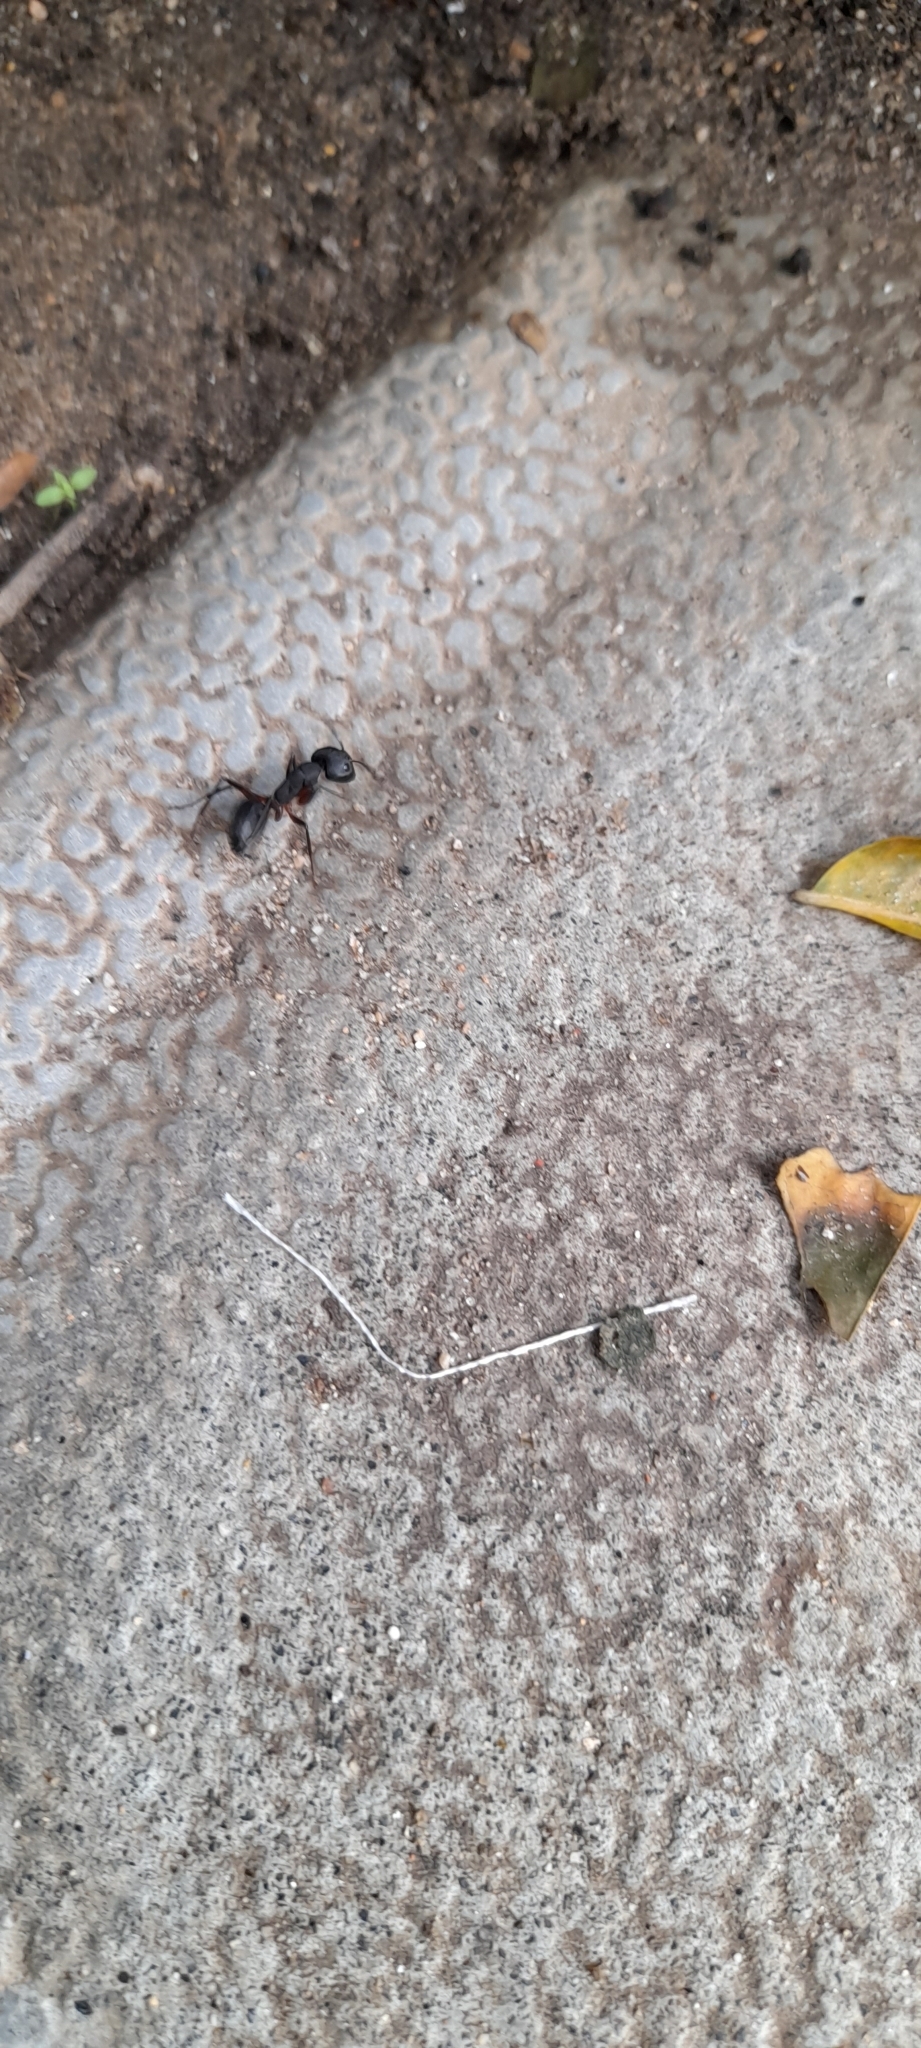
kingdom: Animalia
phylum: Arthropoda
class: Insecta
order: Hymenoptera
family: Formicidae
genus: Camponotus
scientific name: Camponotus compressus
